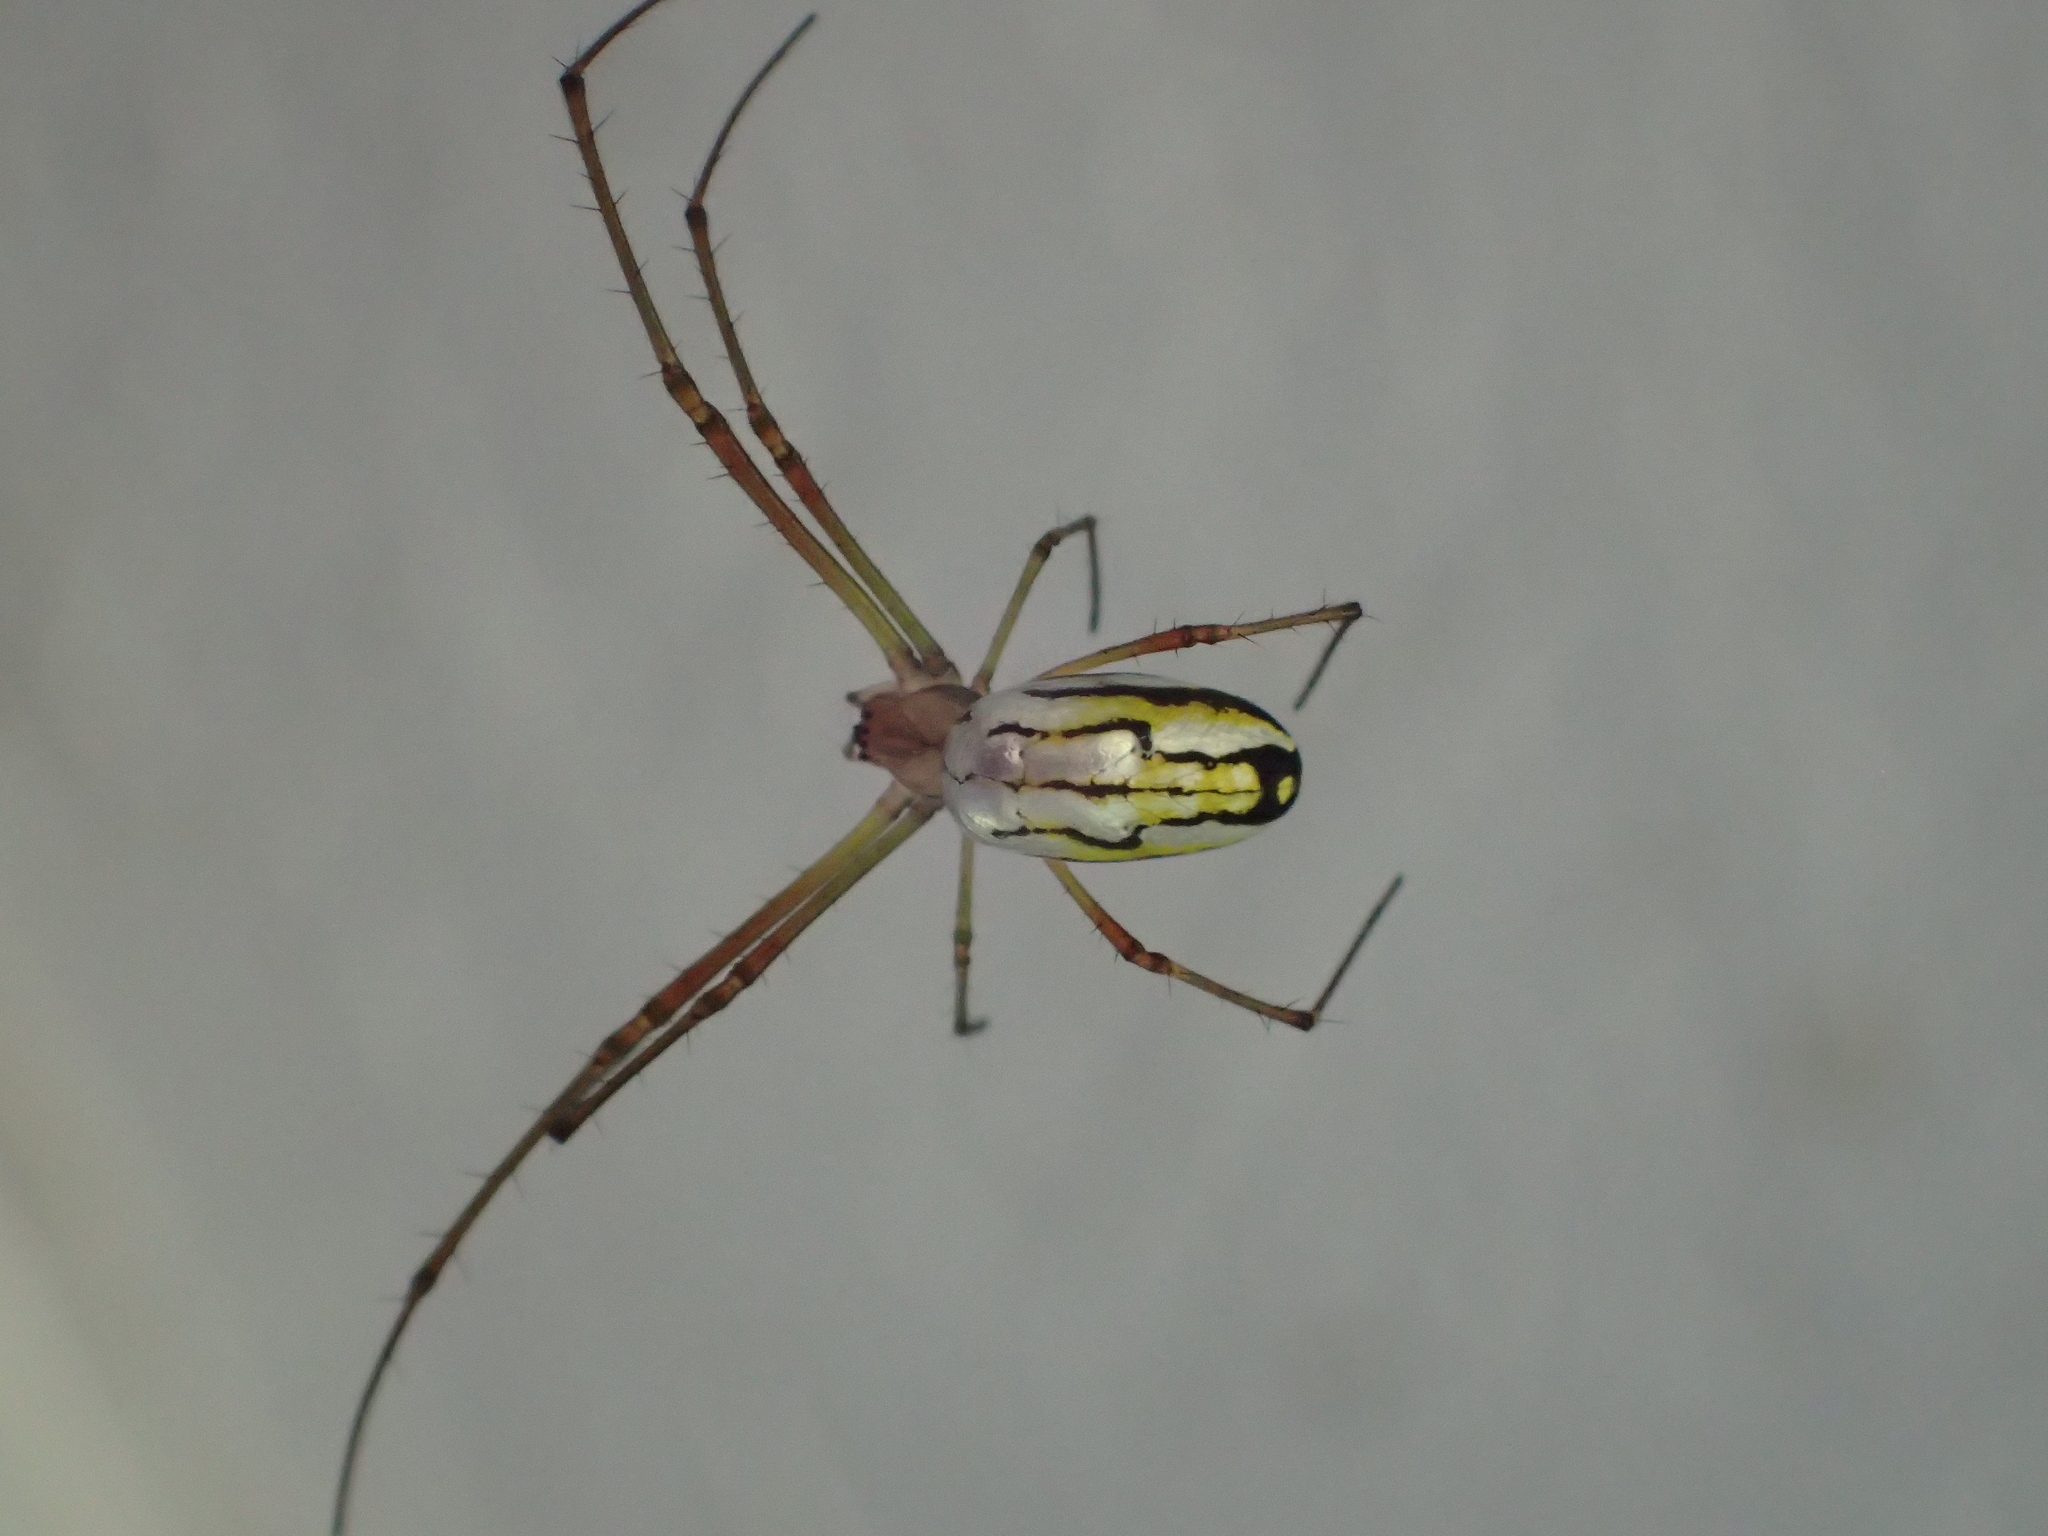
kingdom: Animalia
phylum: Arthropoda
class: Arachnida
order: Araneae
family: Tetragnathidae
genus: Leucauge
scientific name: Leucauge argyra
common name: Longjawed orb weavers
